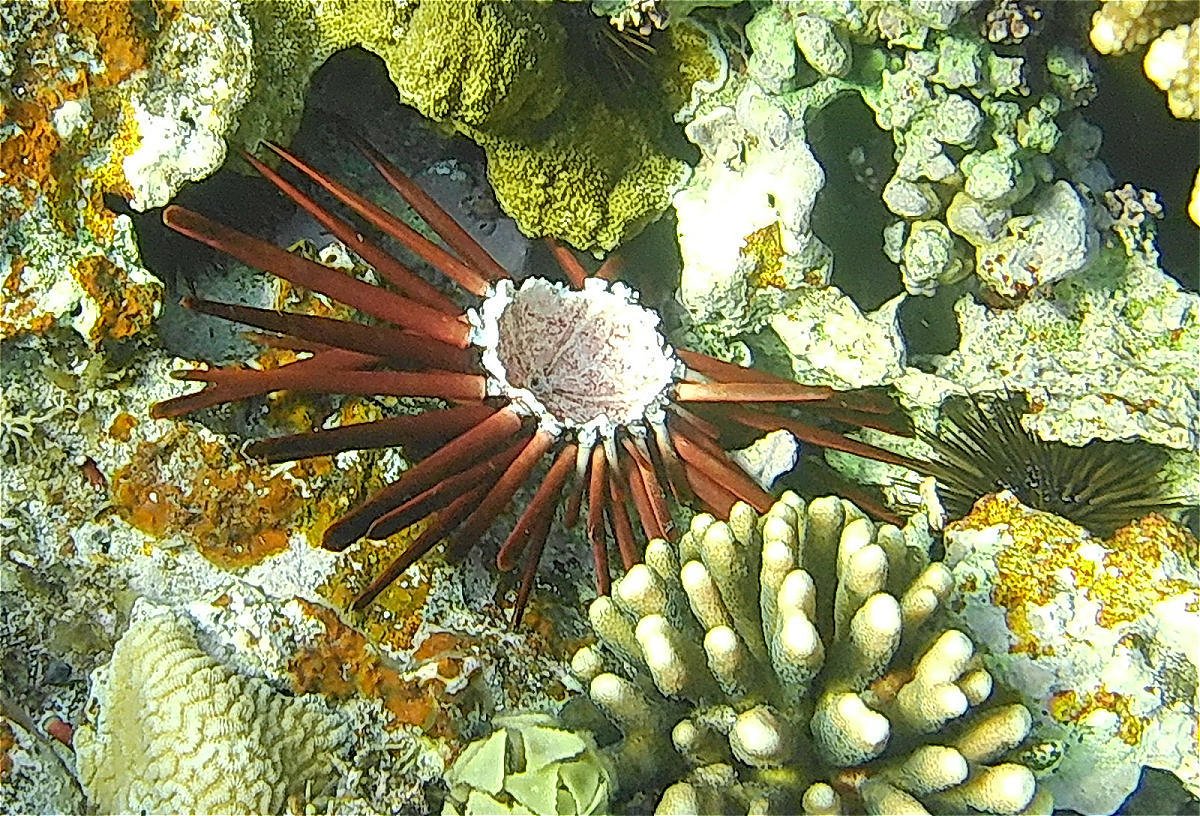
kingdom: Animalia
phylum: Echinodermata
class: Echinoidea
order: Camarodonta
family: Echinometridae
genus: Heterocentrotus
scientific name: Heterocentrotus mamillatus
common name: Slate pencil urchin
